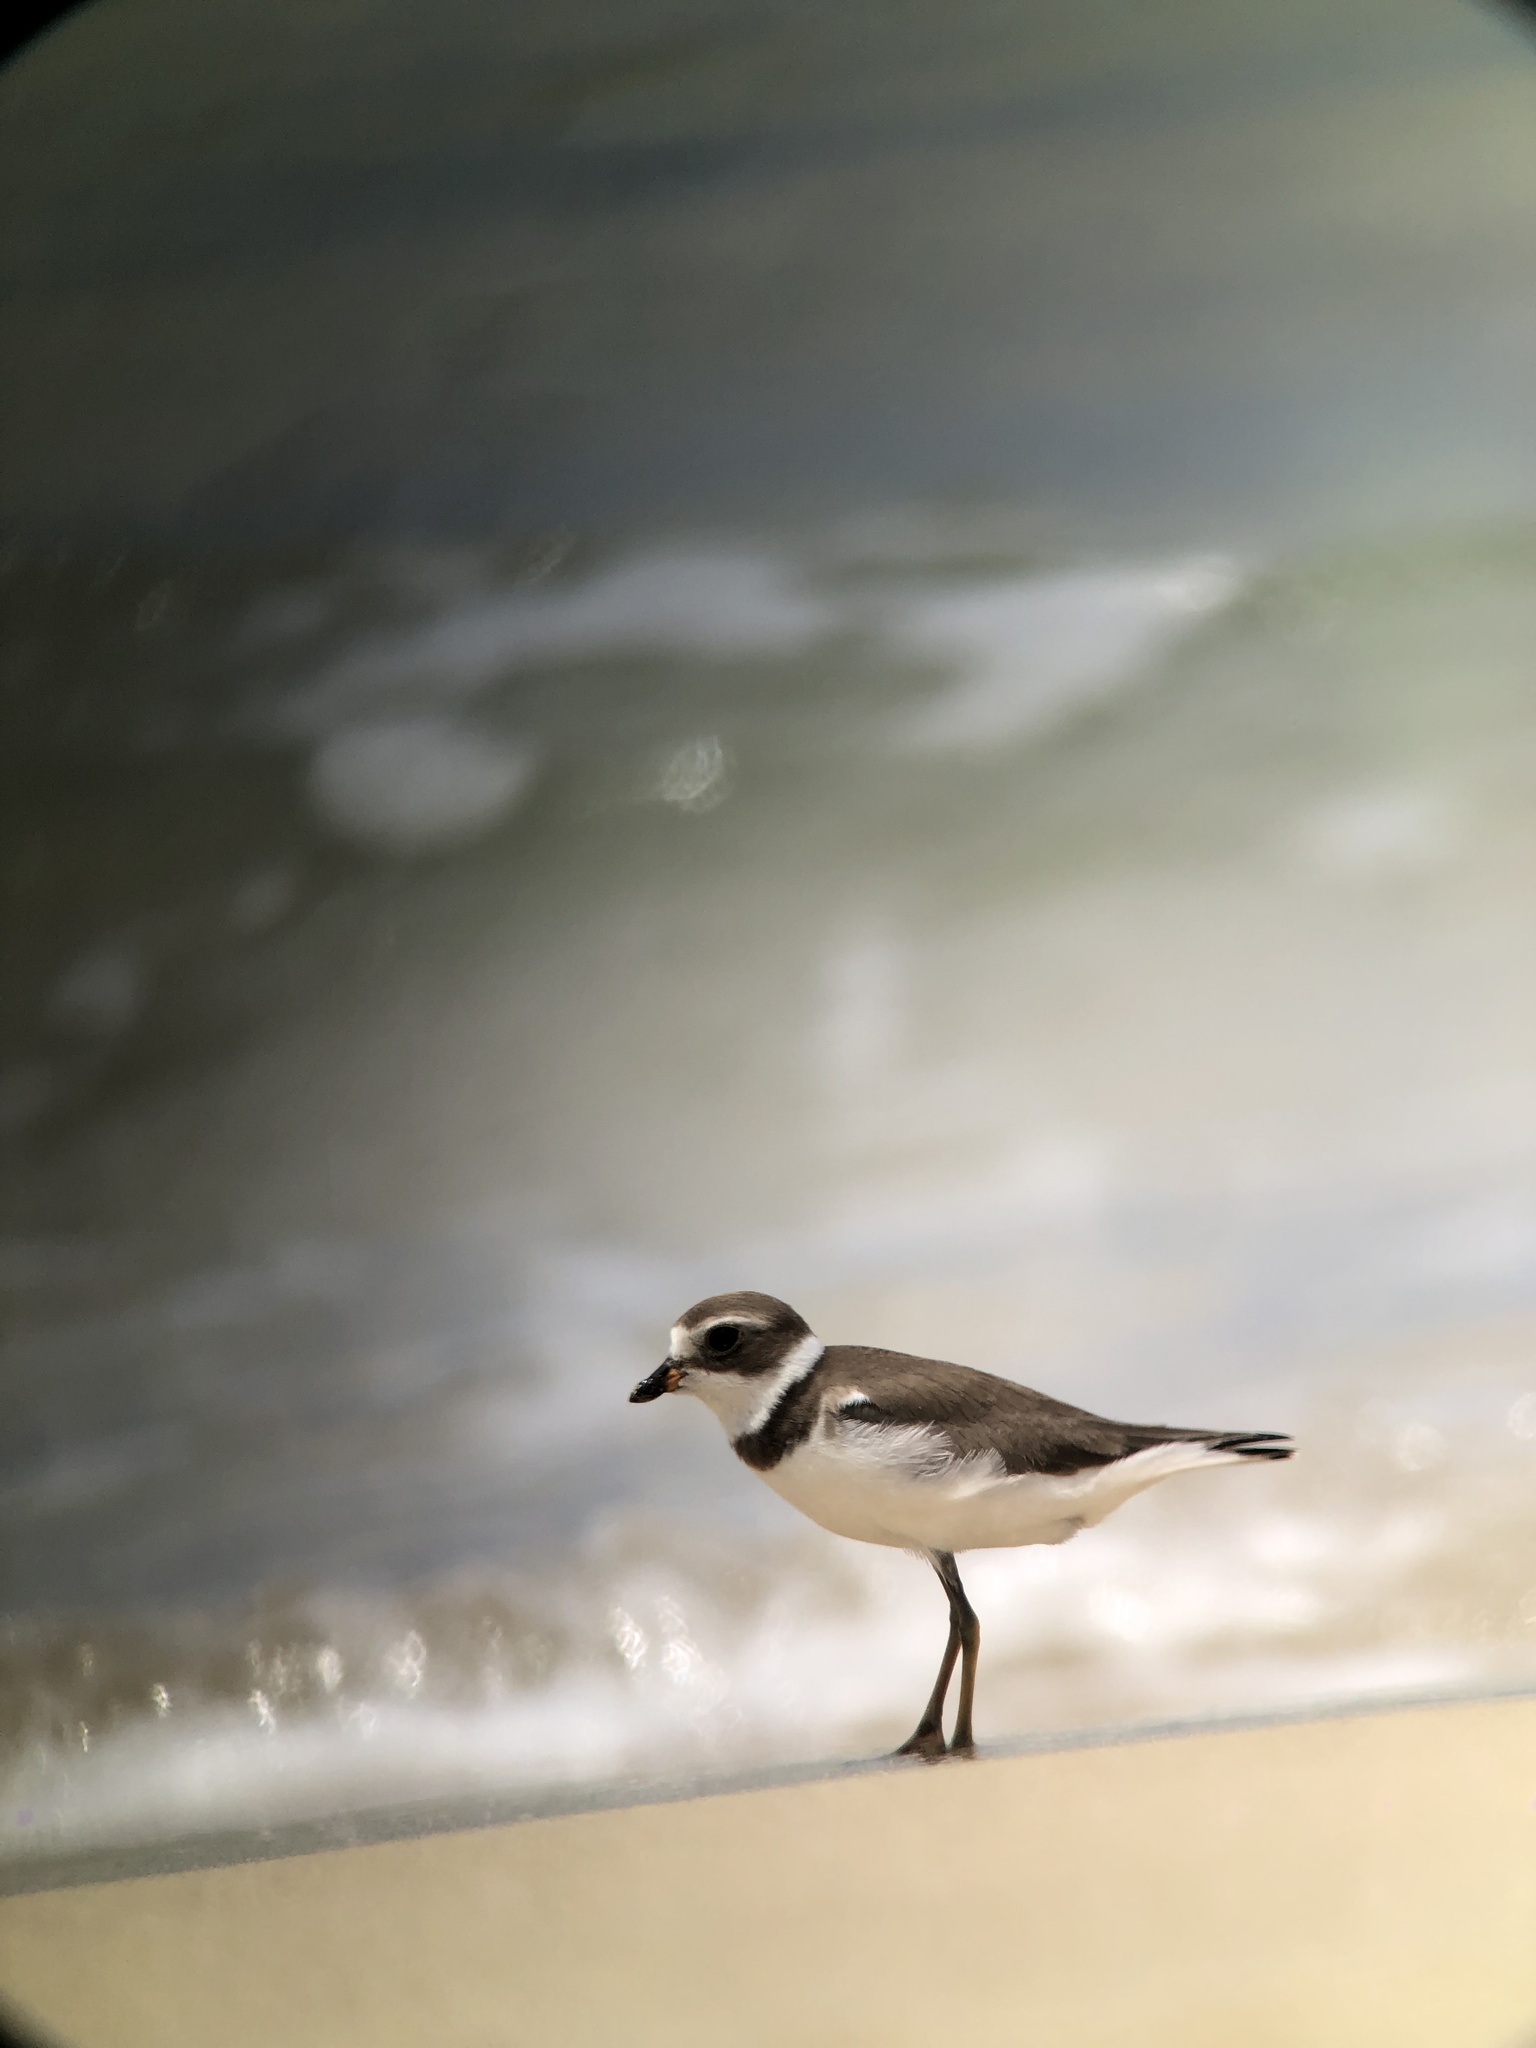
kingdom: Animalia
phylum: Chordata
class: Aves
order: Charadriiformes
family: Charadriidae
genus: Charadrius
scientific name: Charadrius semipalmatus
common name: Semipalmated plover
